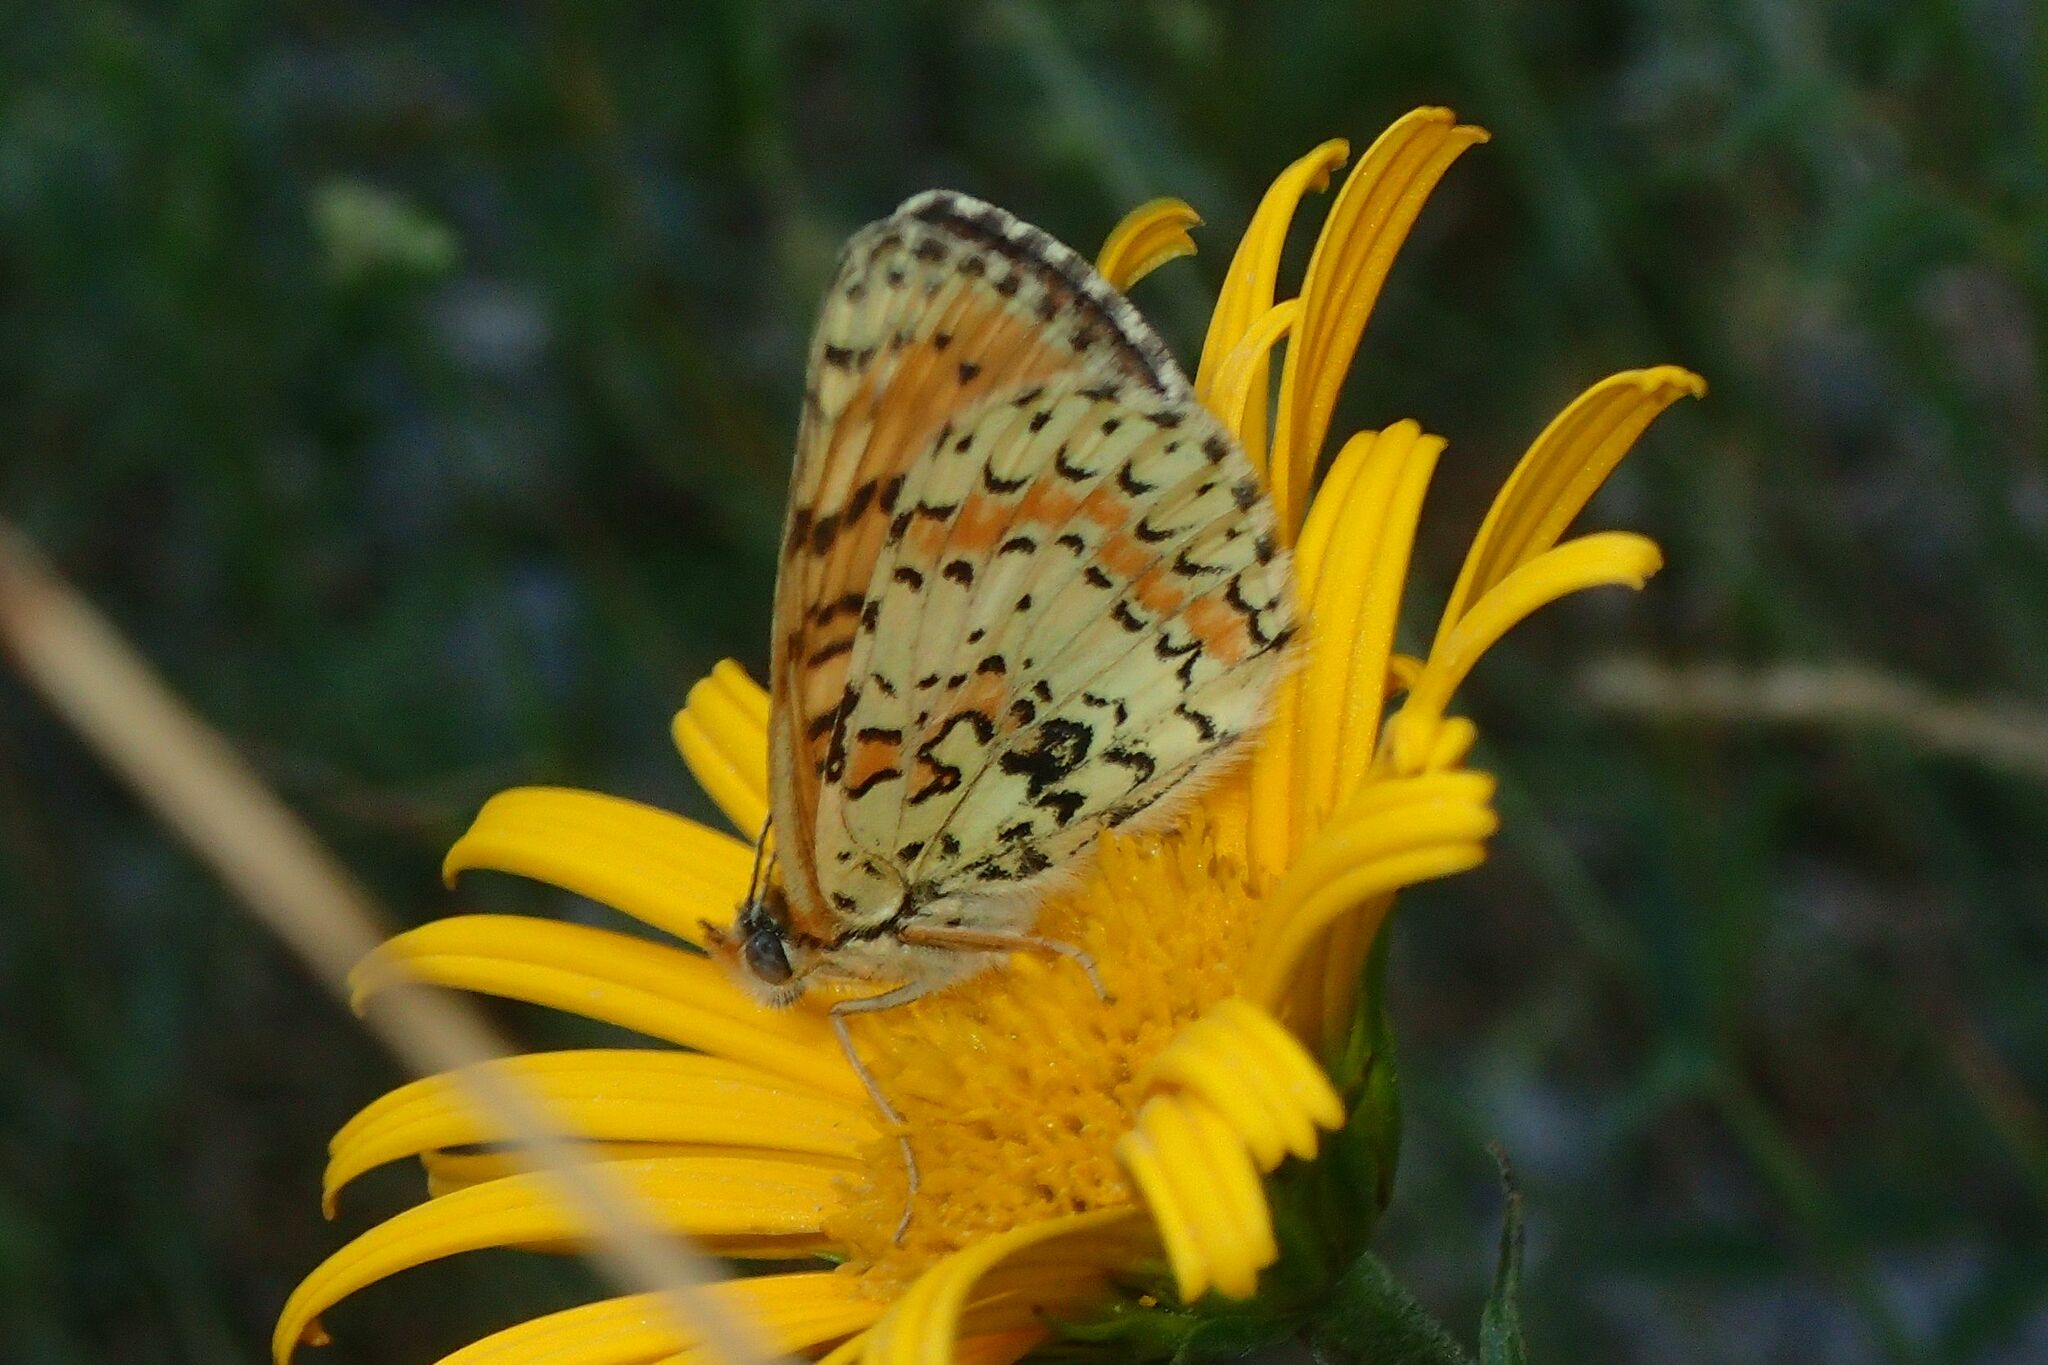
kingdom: Animalia
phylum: Arthropoda
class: Insecta
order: Lepidoptera
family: Nymphalidae
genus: Melitaea
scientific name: Melitaea didyma
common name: Spotted fritillary
